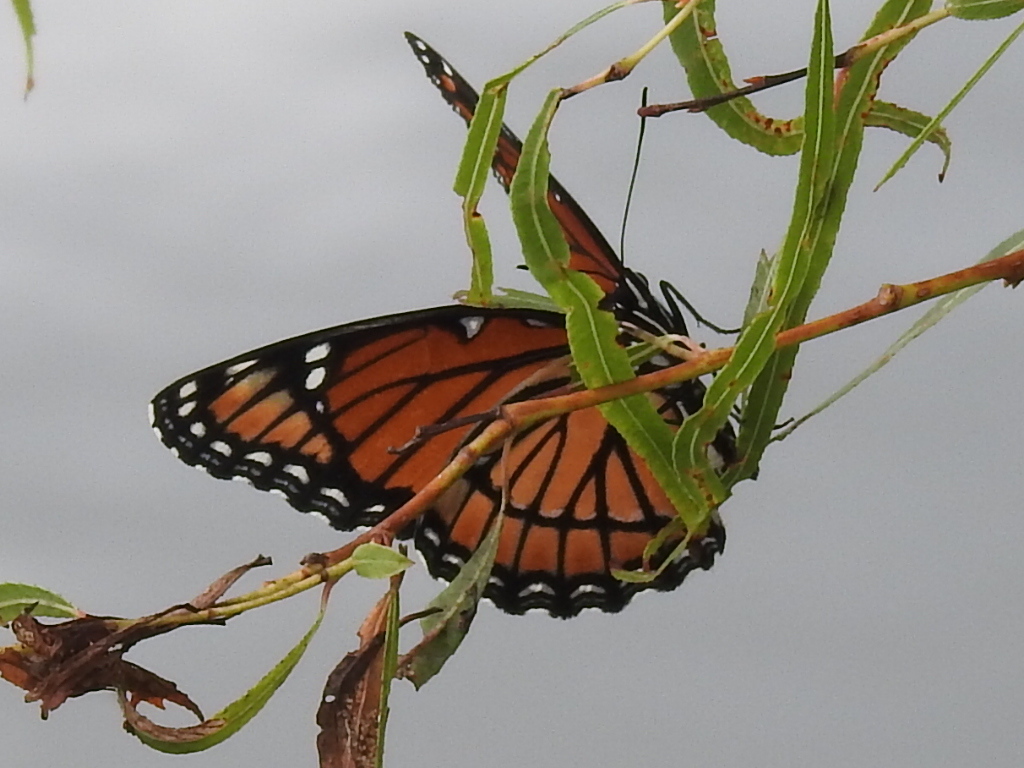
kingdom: Animalia
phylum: Arthropoda
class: Insecta
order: Lepidoptera
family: Nymphalidae
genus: Limenitis
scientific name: Limenitis archippus
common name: Viceroy
